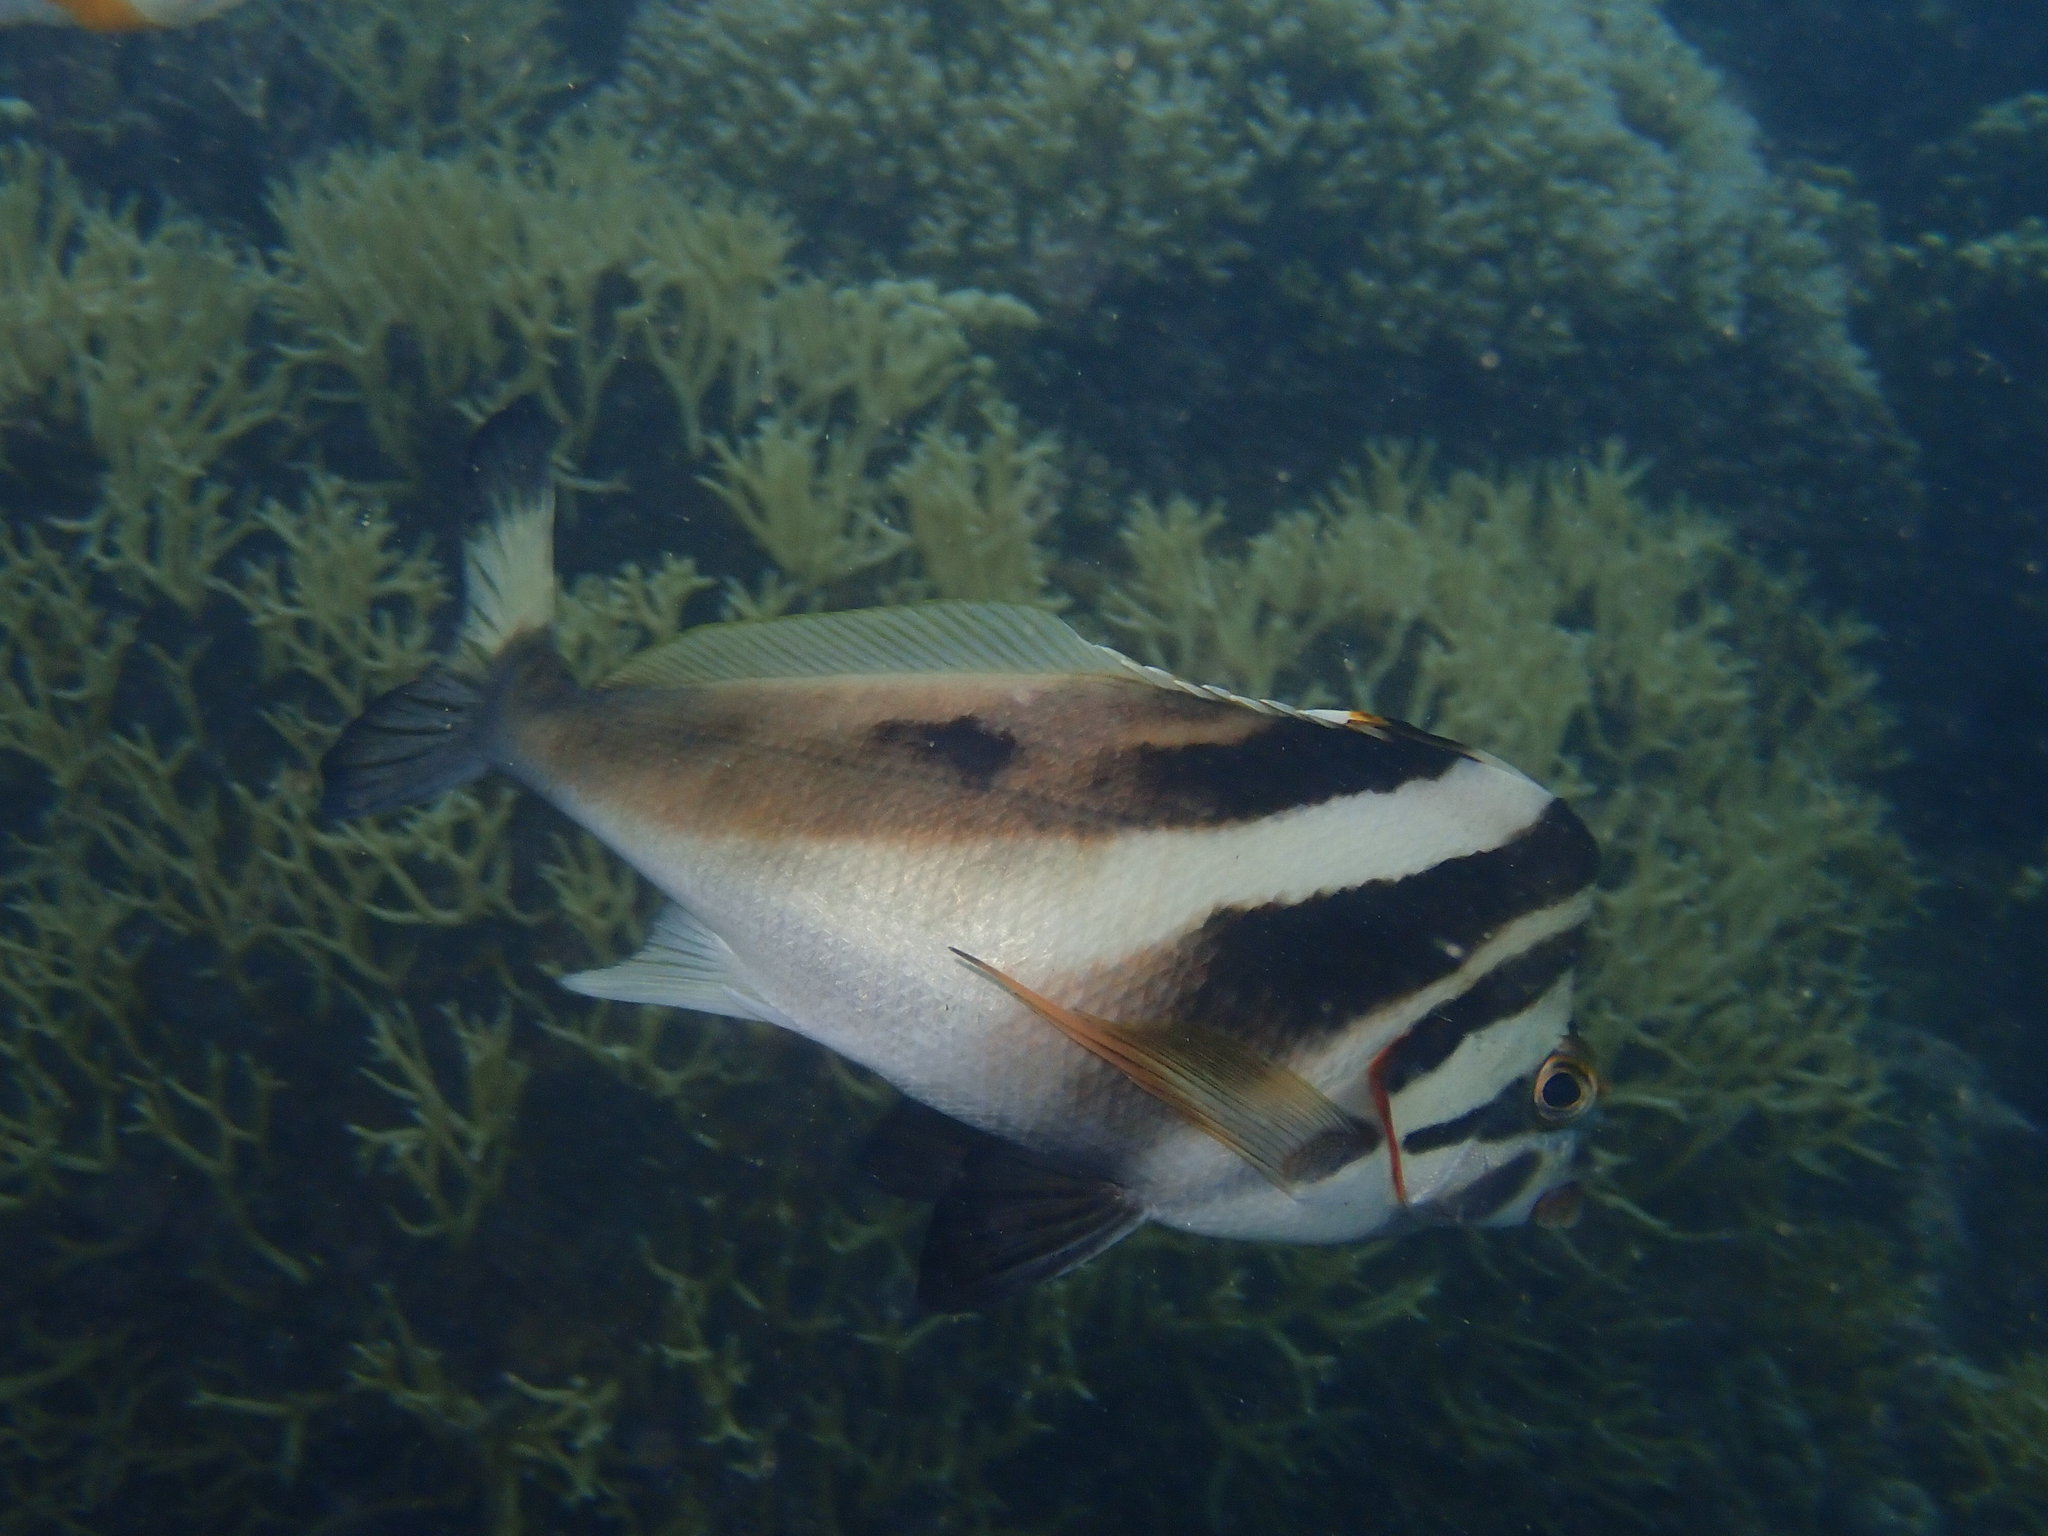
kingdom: Animalia
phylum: Chordata
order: Perciformes
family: Cheilodactylidae
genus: Cheilodactylus
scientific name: Cheilodactylus francisi
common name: Blacktip morwong
